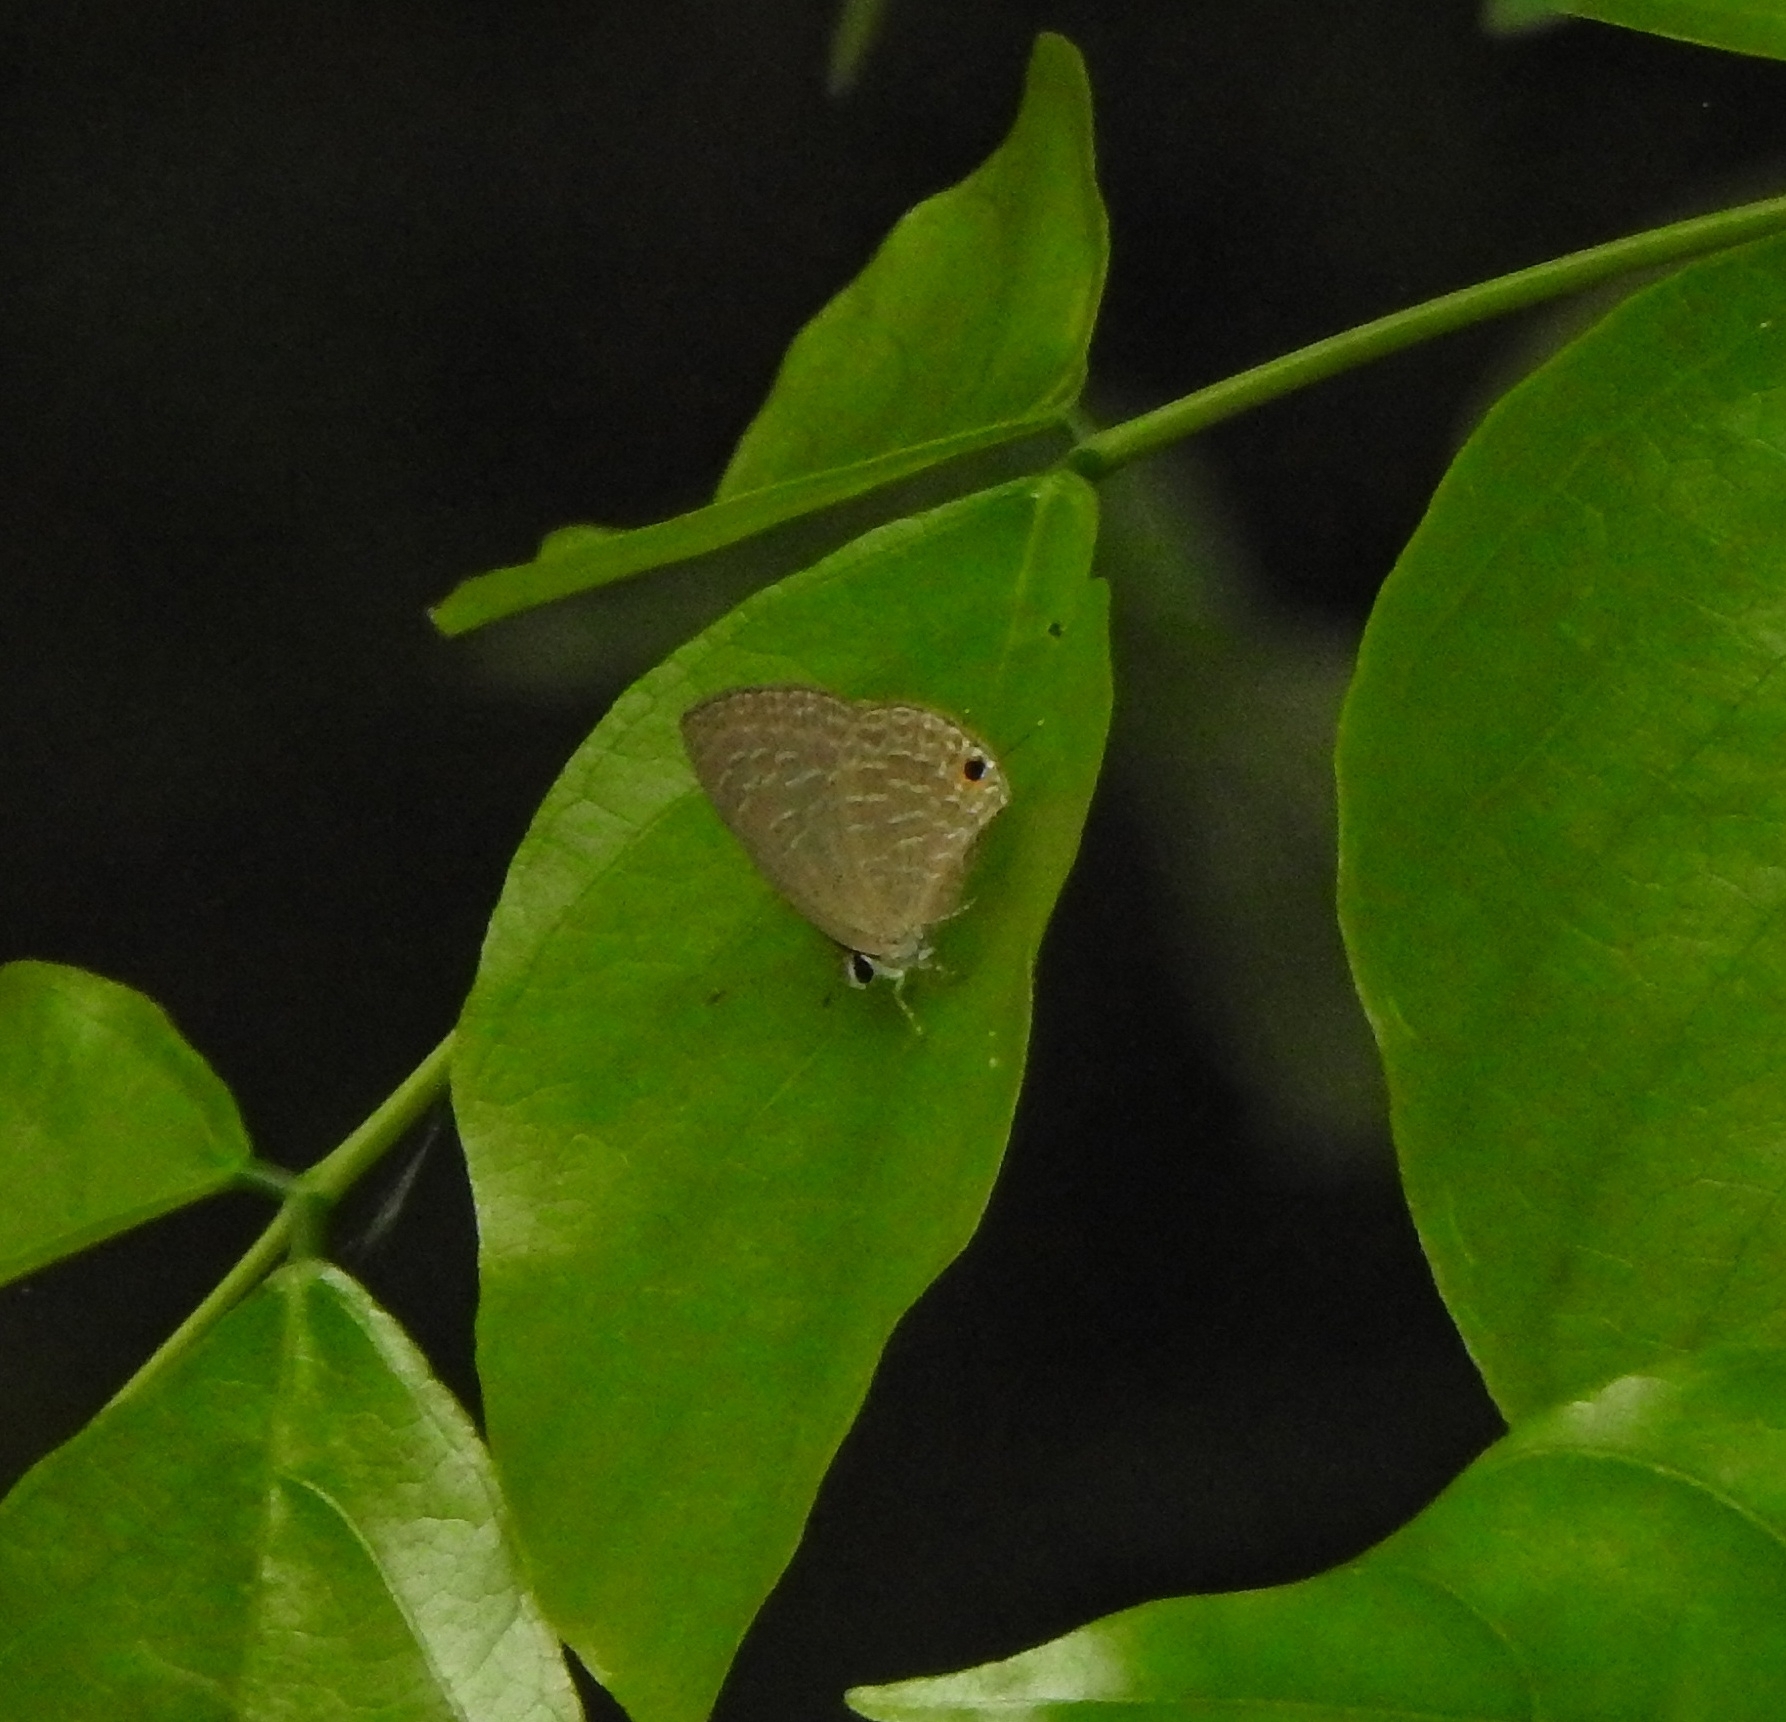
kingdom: Animalia
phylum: Arthropoda
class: Insecta
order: Lepidoptera
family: Lycaenidae
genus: Jamides
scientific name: Jamides bochus
